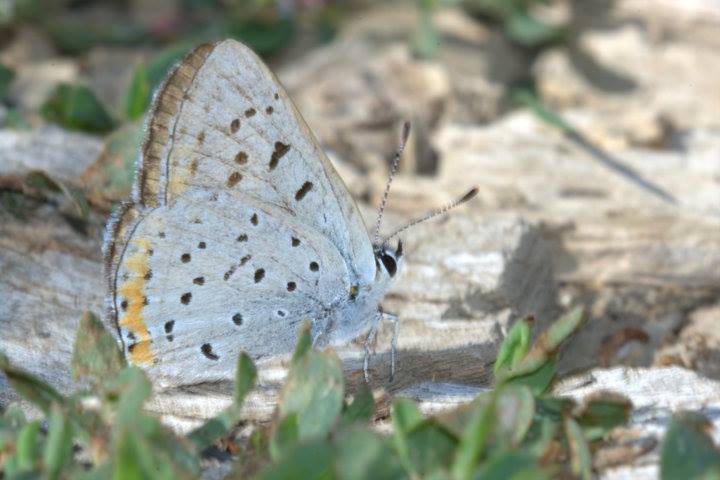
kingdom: Animalia
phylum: Arthropoda
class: Insecta
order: Lepidoptera
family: Lycaenidae
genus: Tharsalea
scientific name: Tharsalea dione
